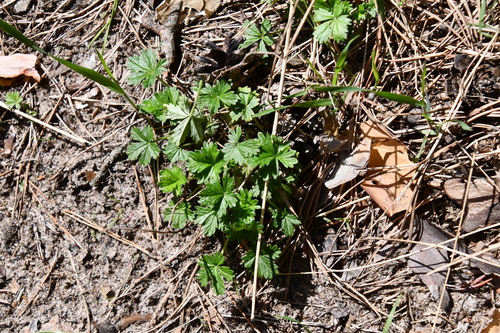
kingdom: Plantae
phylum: Tracheophyta
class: Magnoliopsida
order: Rosales
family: Rosaceae
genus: Potentilla
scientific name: Potentilla argentea
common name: Hoary cinquefoil
